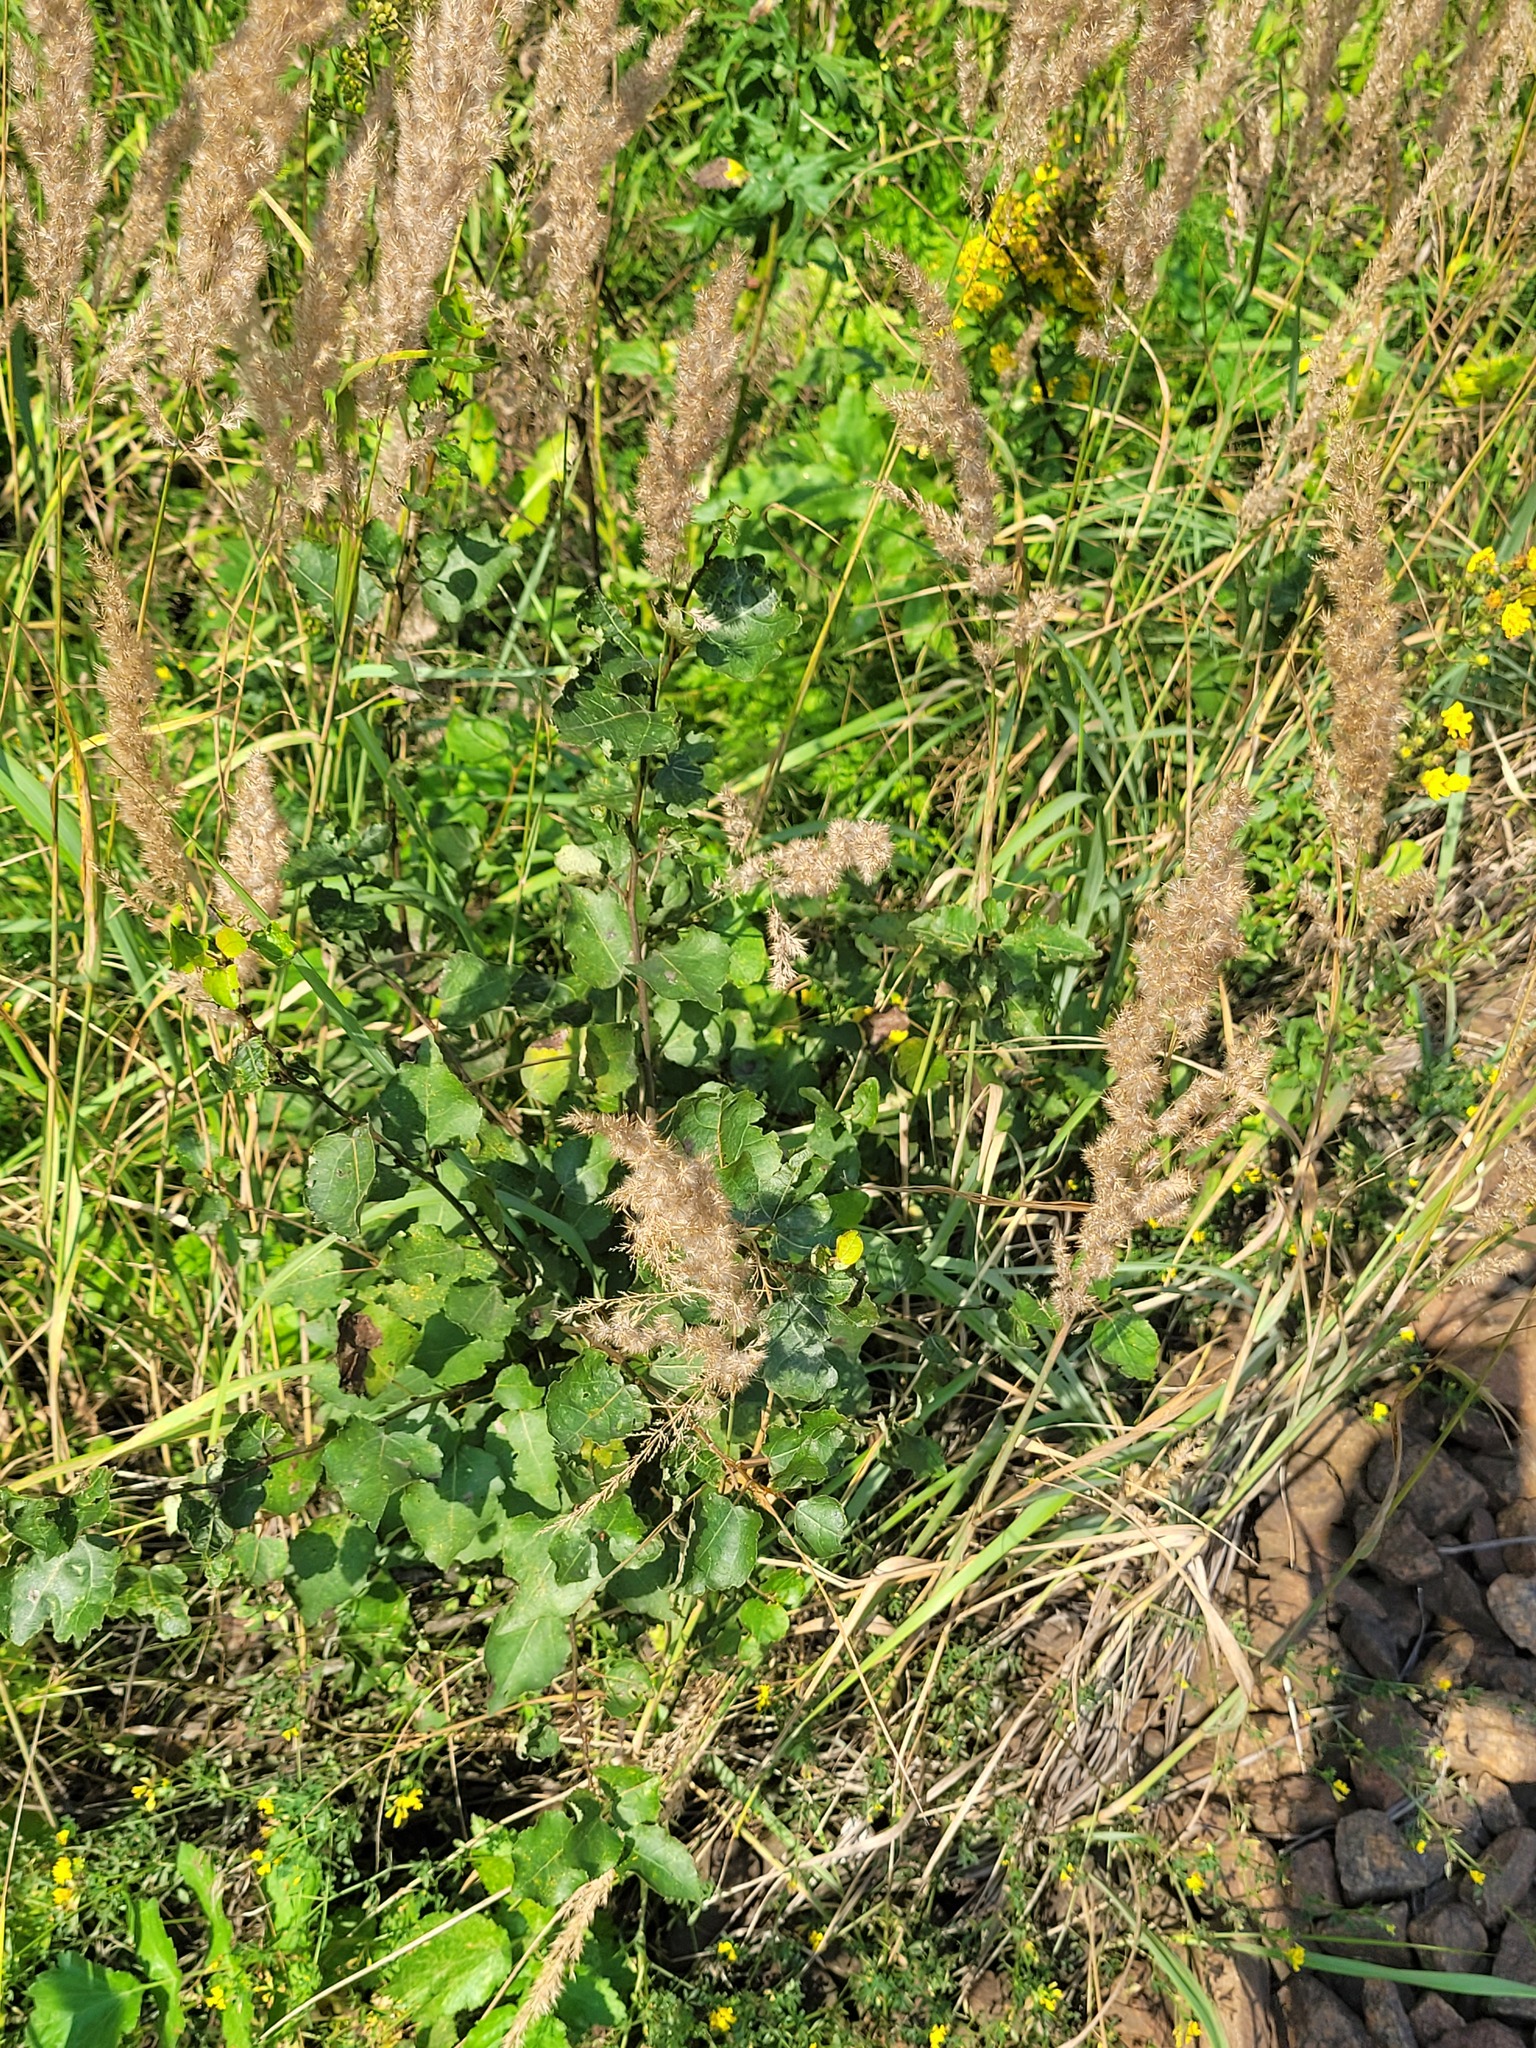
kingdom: Plantae
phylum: Tracheophyta
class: Magnoliopsida
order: Malpighiales
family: Salicaceae
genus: Populus
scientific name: Populus tremula
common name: European aspen
